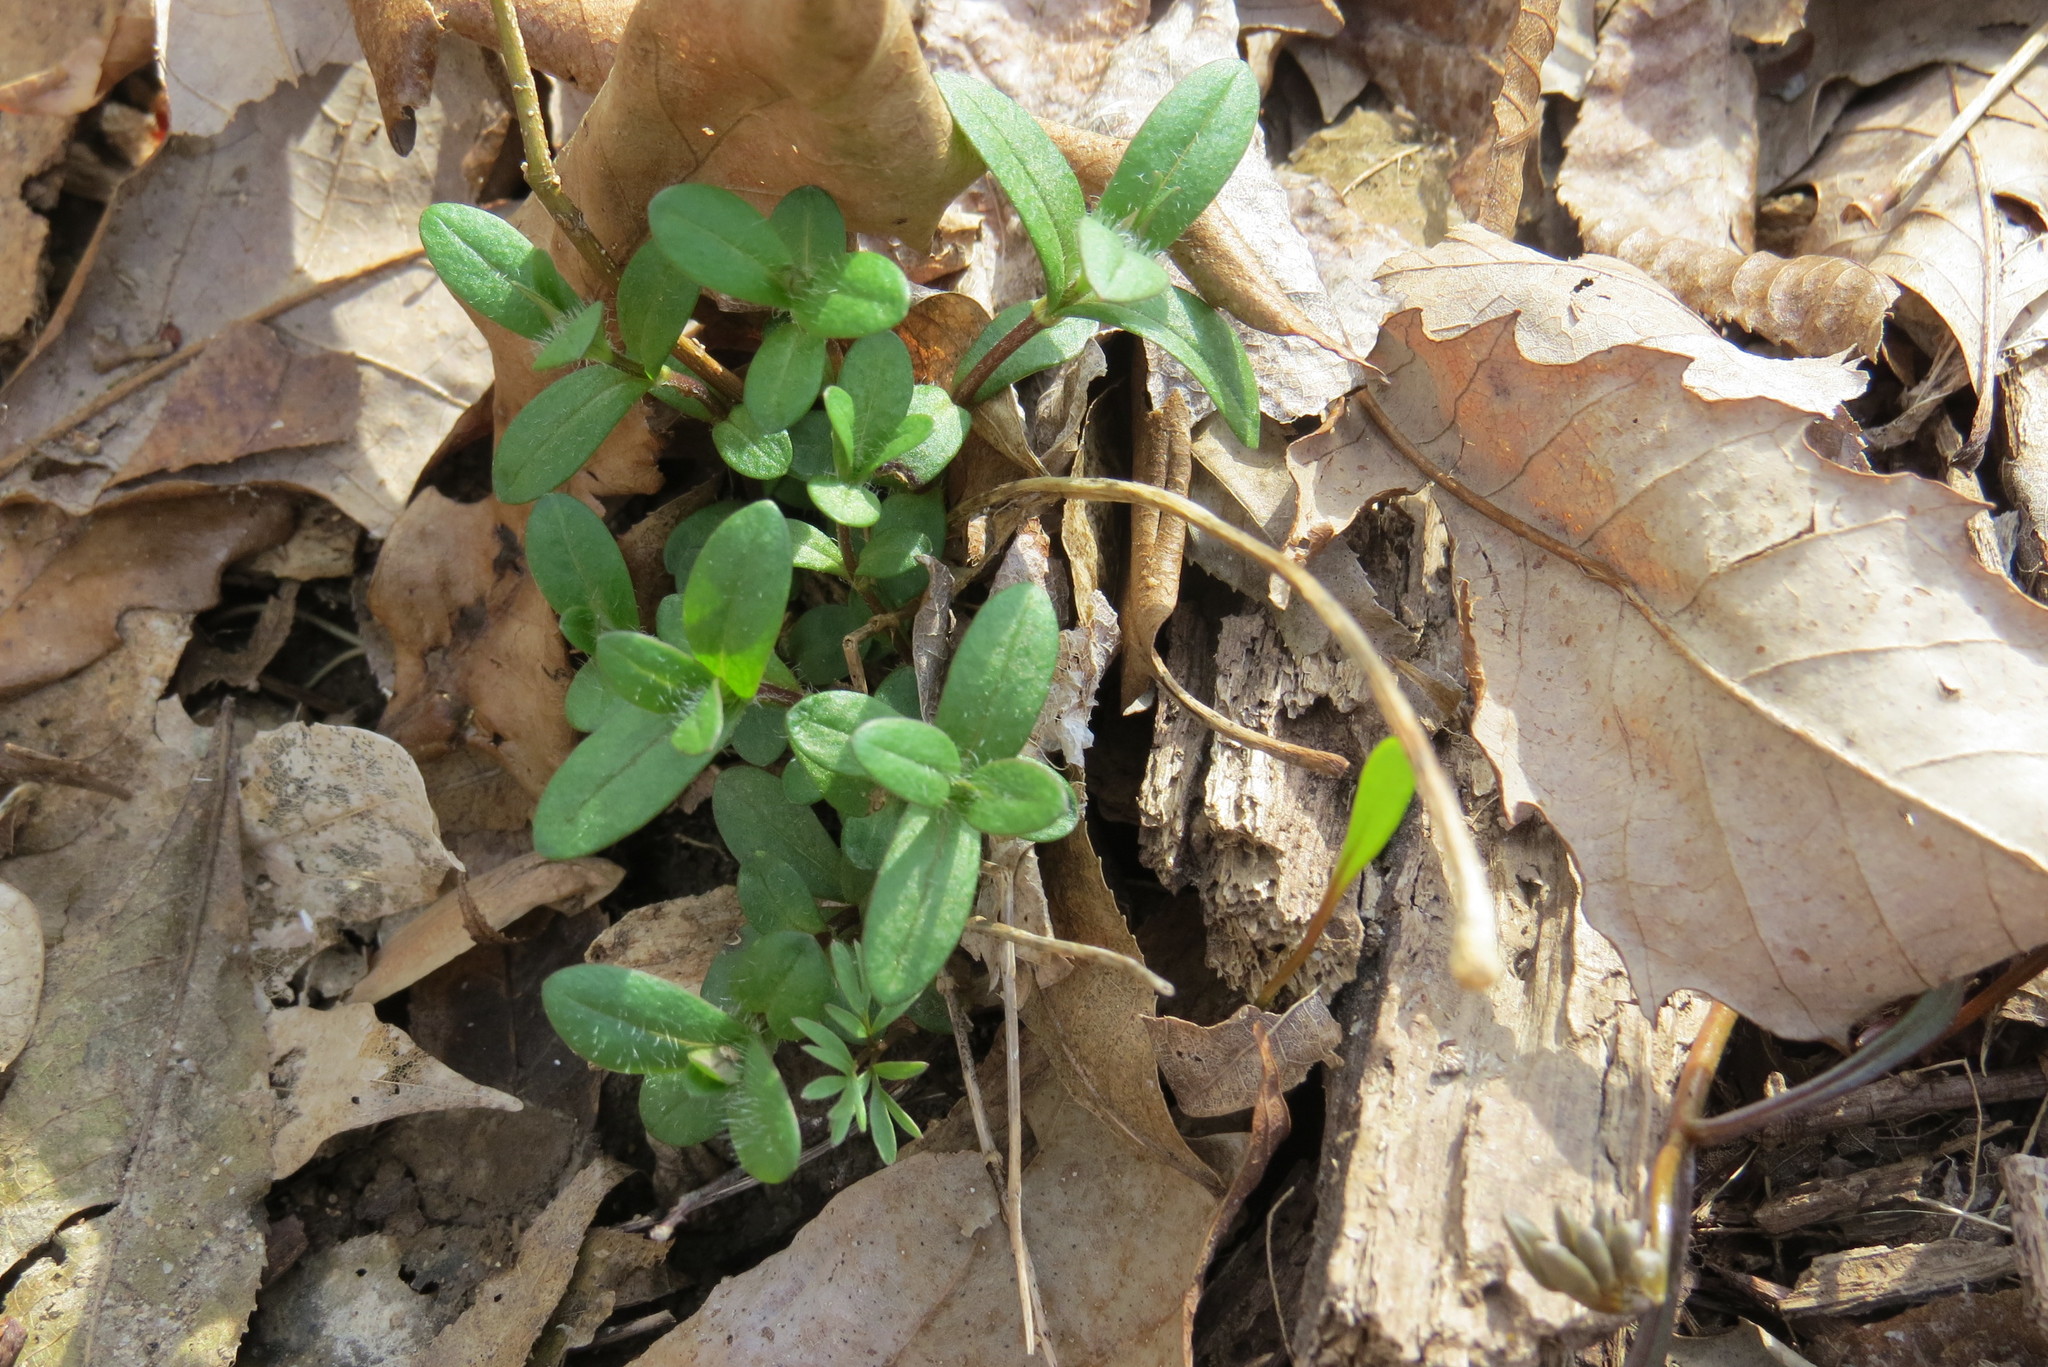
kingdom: Plantae
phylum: Tracheophyta
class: Magnoliopsida
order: Ericales
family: Polemoniaceae
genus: Phlox
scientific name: Phlox divaricata
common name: Blue phlox
